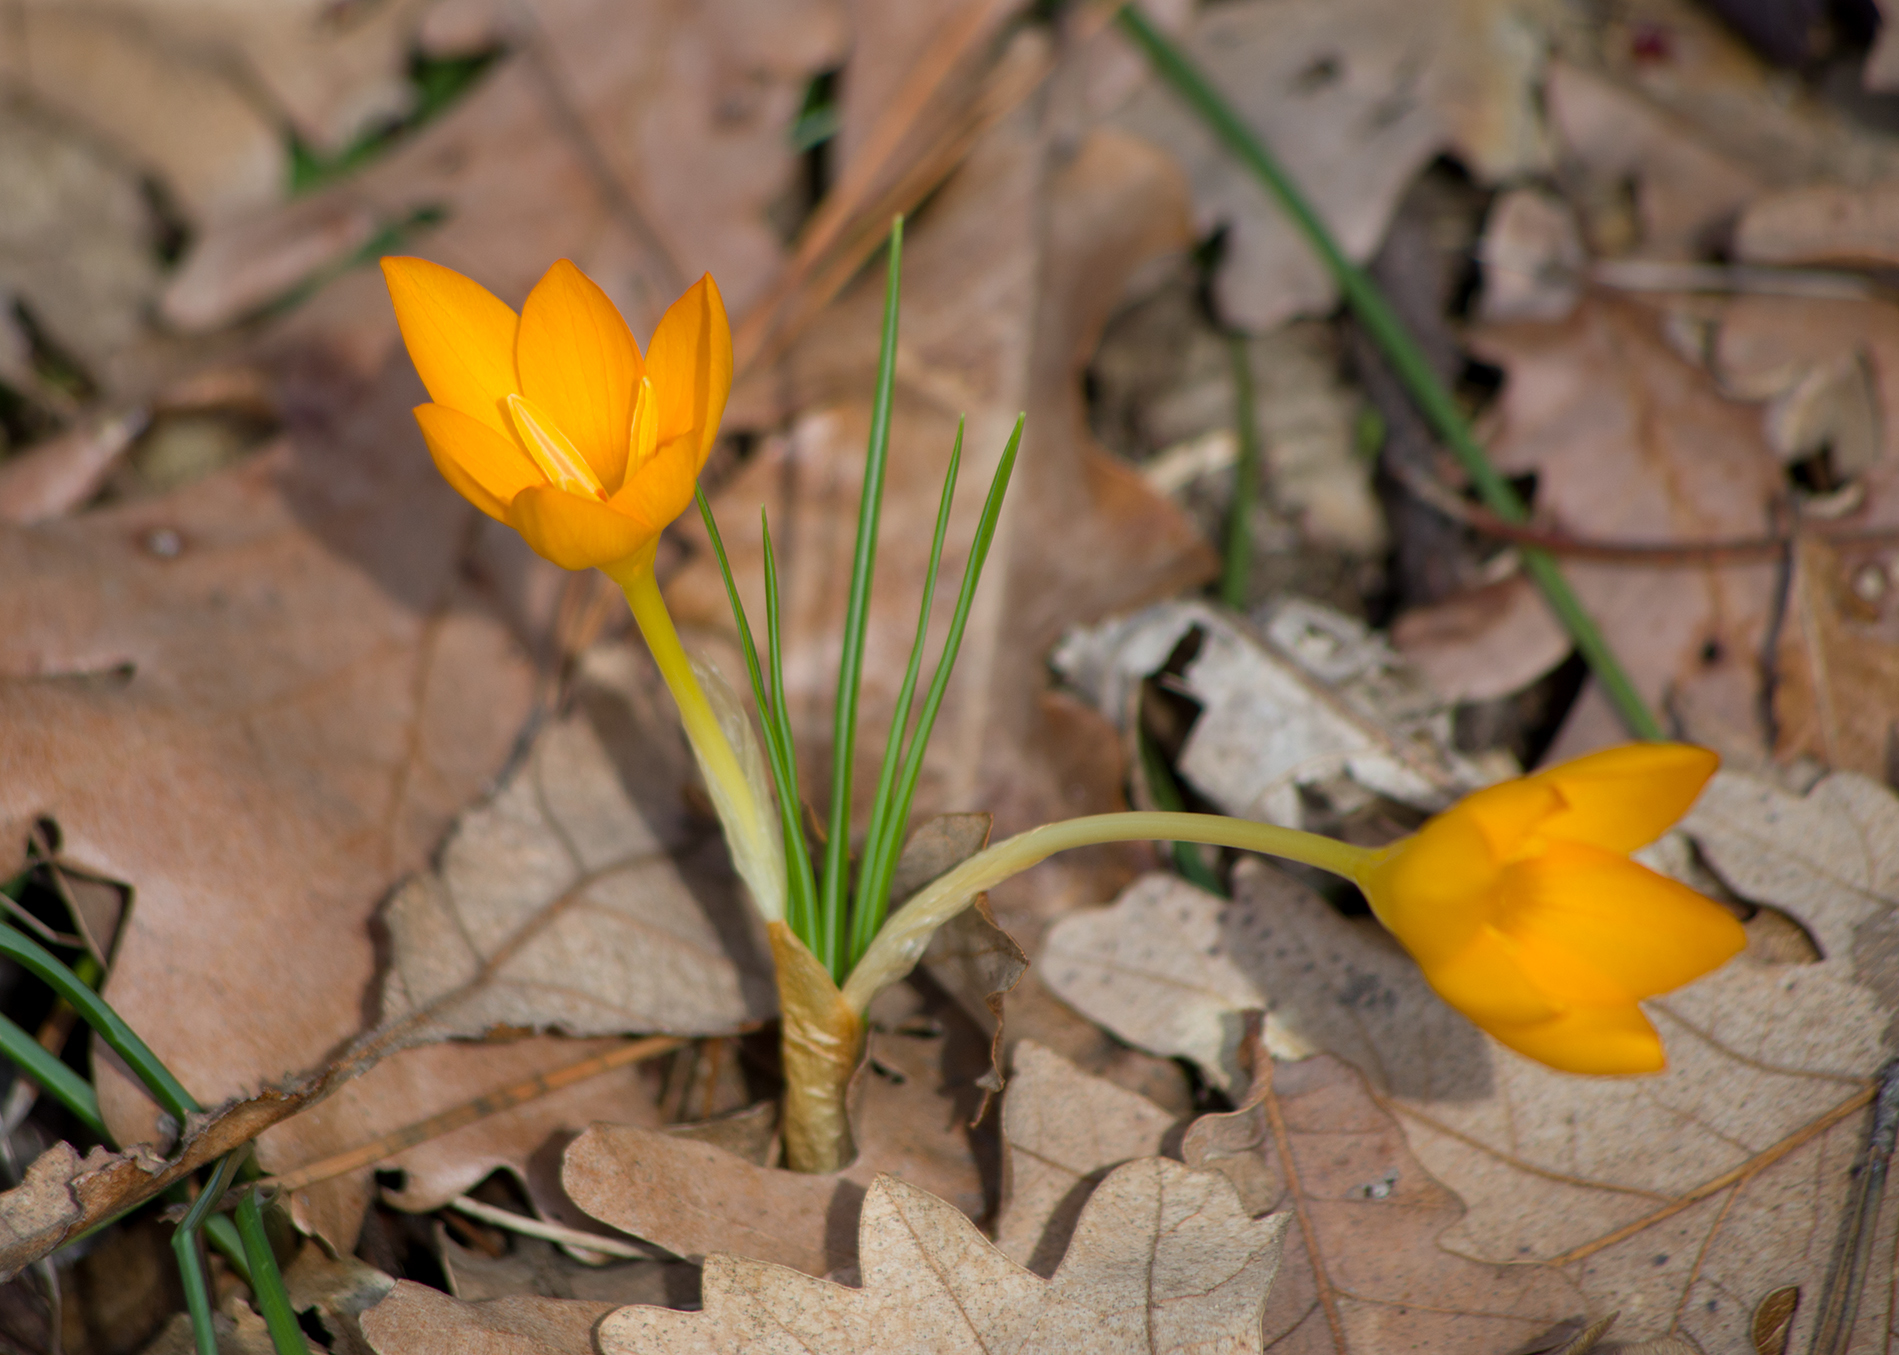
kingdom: Plantae
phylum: Tracheophyta
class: Liliopsida
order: Asparagales
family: Iridaceae
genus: Crocus
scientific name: Crocus flavus
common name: Yellow crocus
